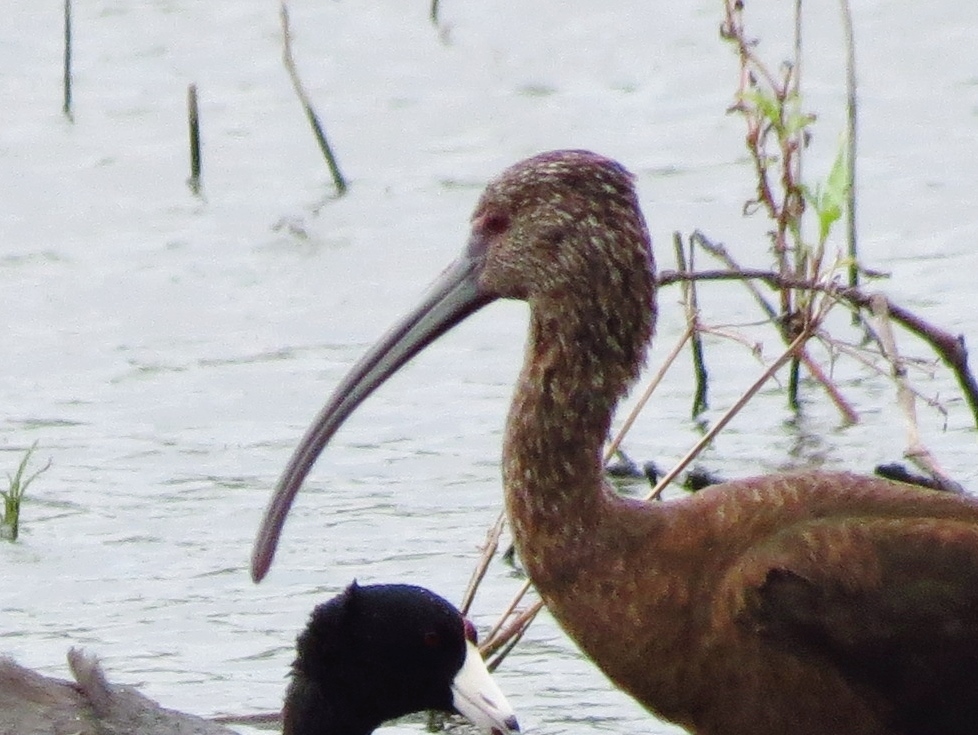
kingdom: Animalia
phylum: Chordata
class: Aves
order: Pelecaniformes
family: Threskiornithidae
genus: Plegadis
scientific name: Plegadis chihi
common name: White-faced ibis
